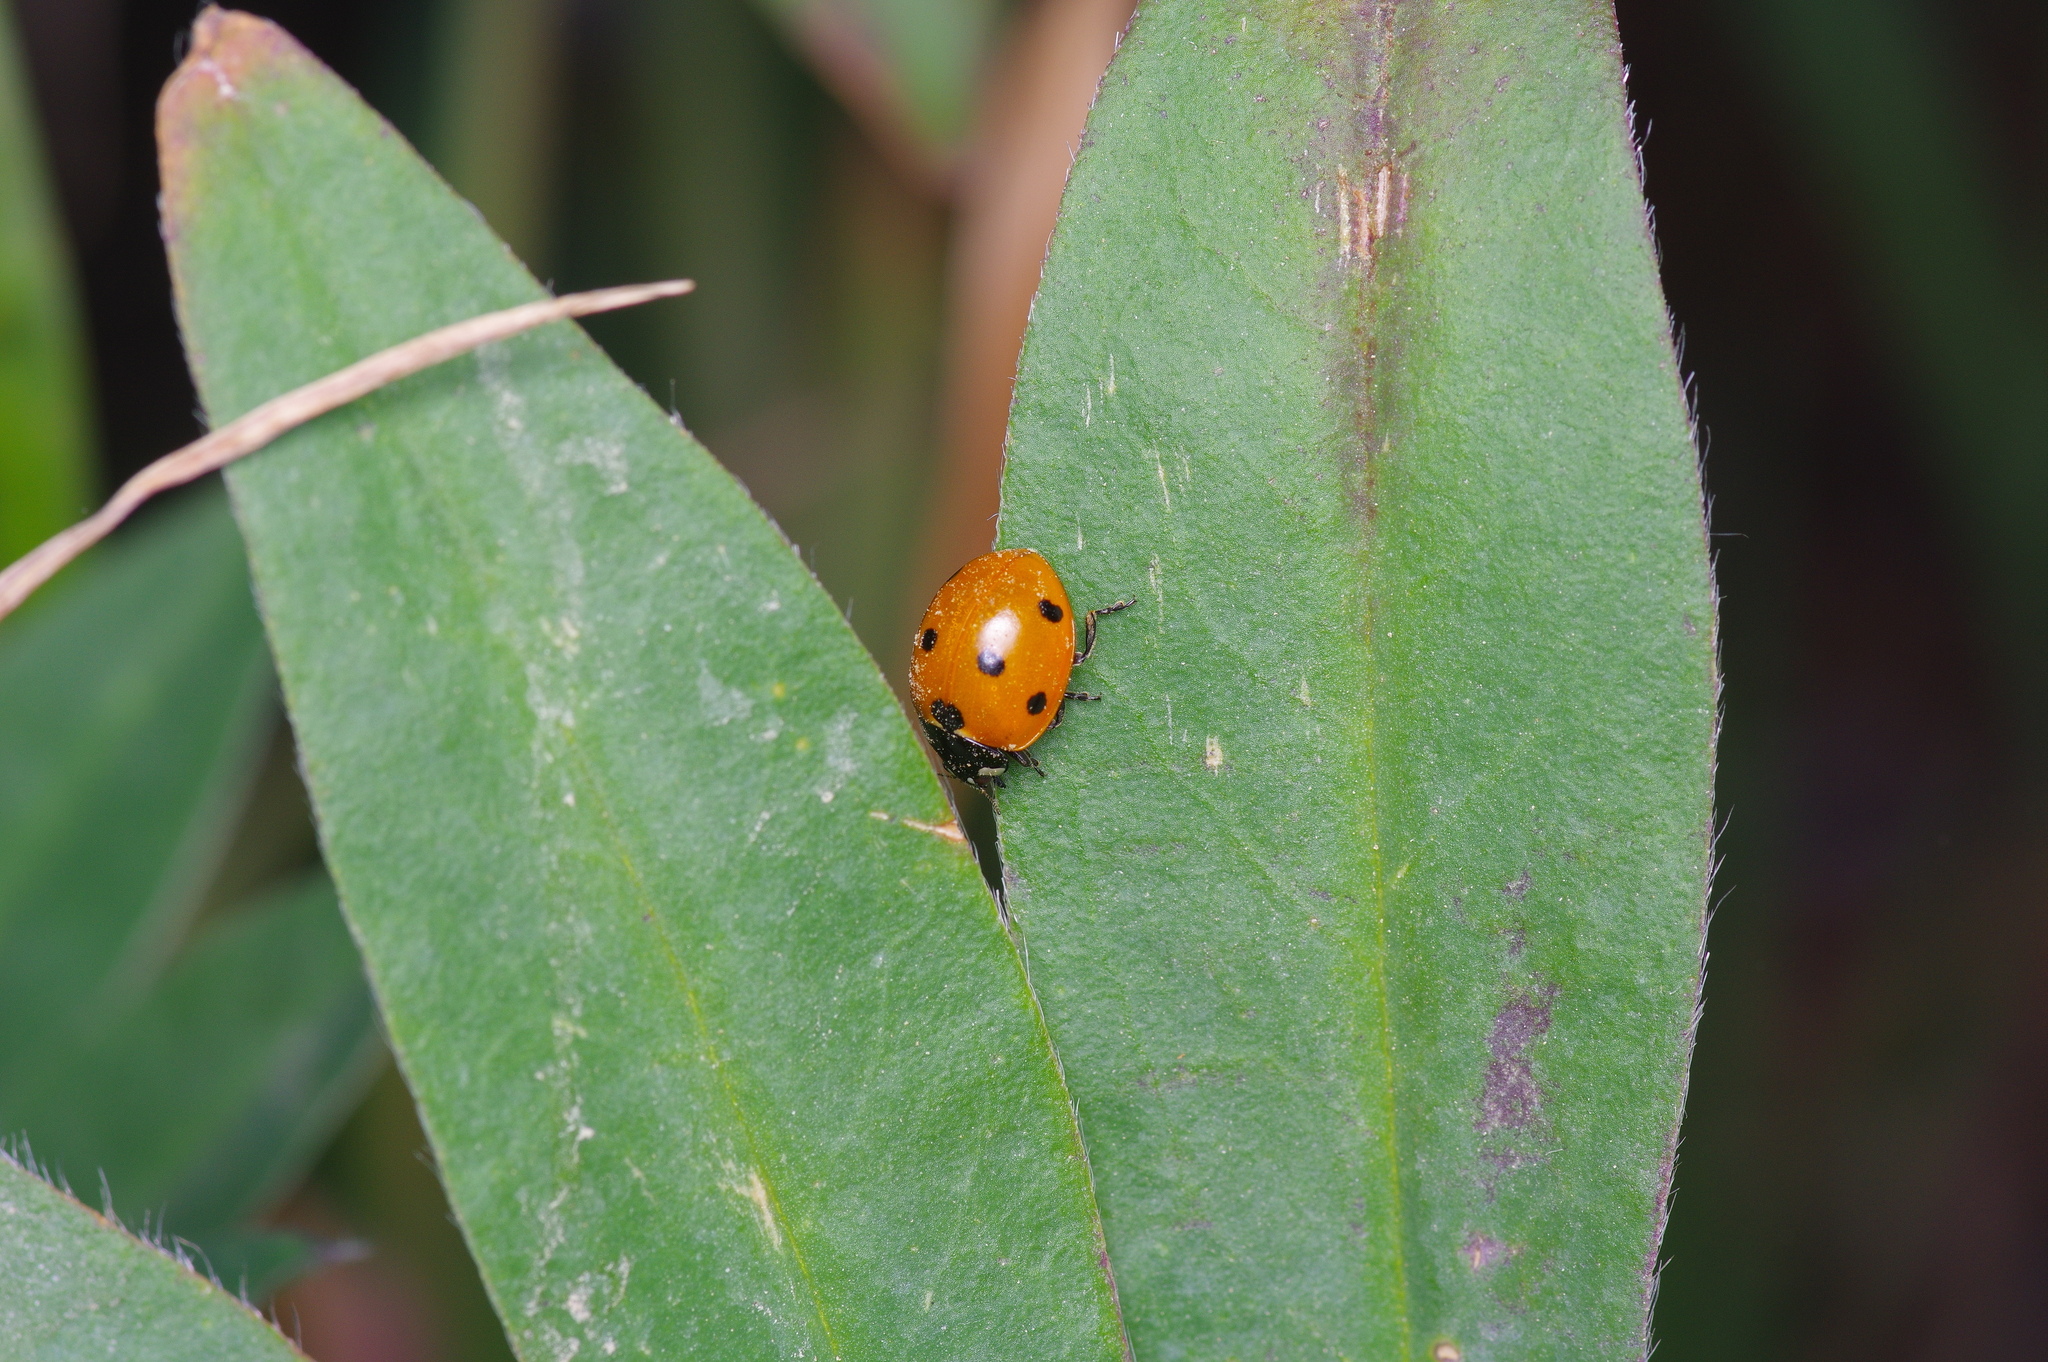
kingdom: Animalia
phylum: Arthropoda
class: Insecta
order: Coleoptera
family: Coccinellidae
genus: Coccinella
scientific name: Coccinella septempunctata
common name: Sevenspotted lady beetle
